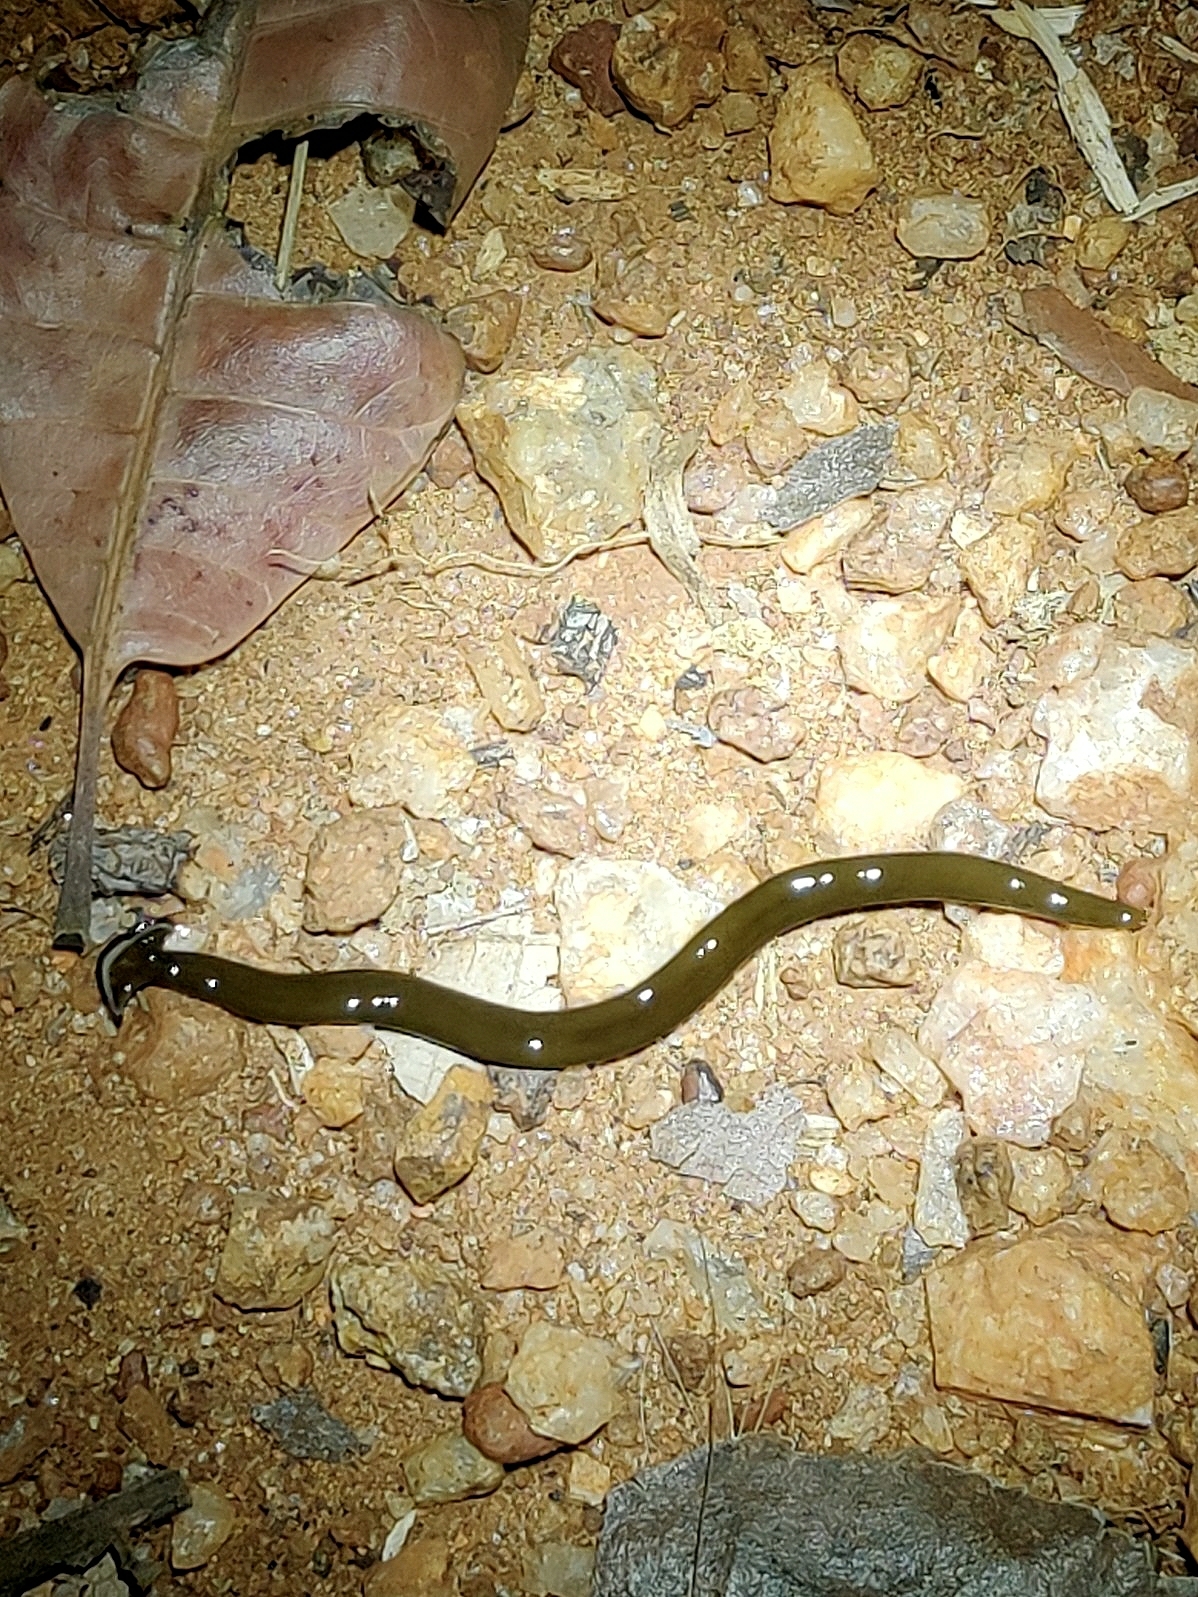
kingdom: Animalia
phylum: Platyhelminthes
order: Tricladida
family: Geoplanidae
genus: Bipalium
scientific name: Bipalium univittatum
